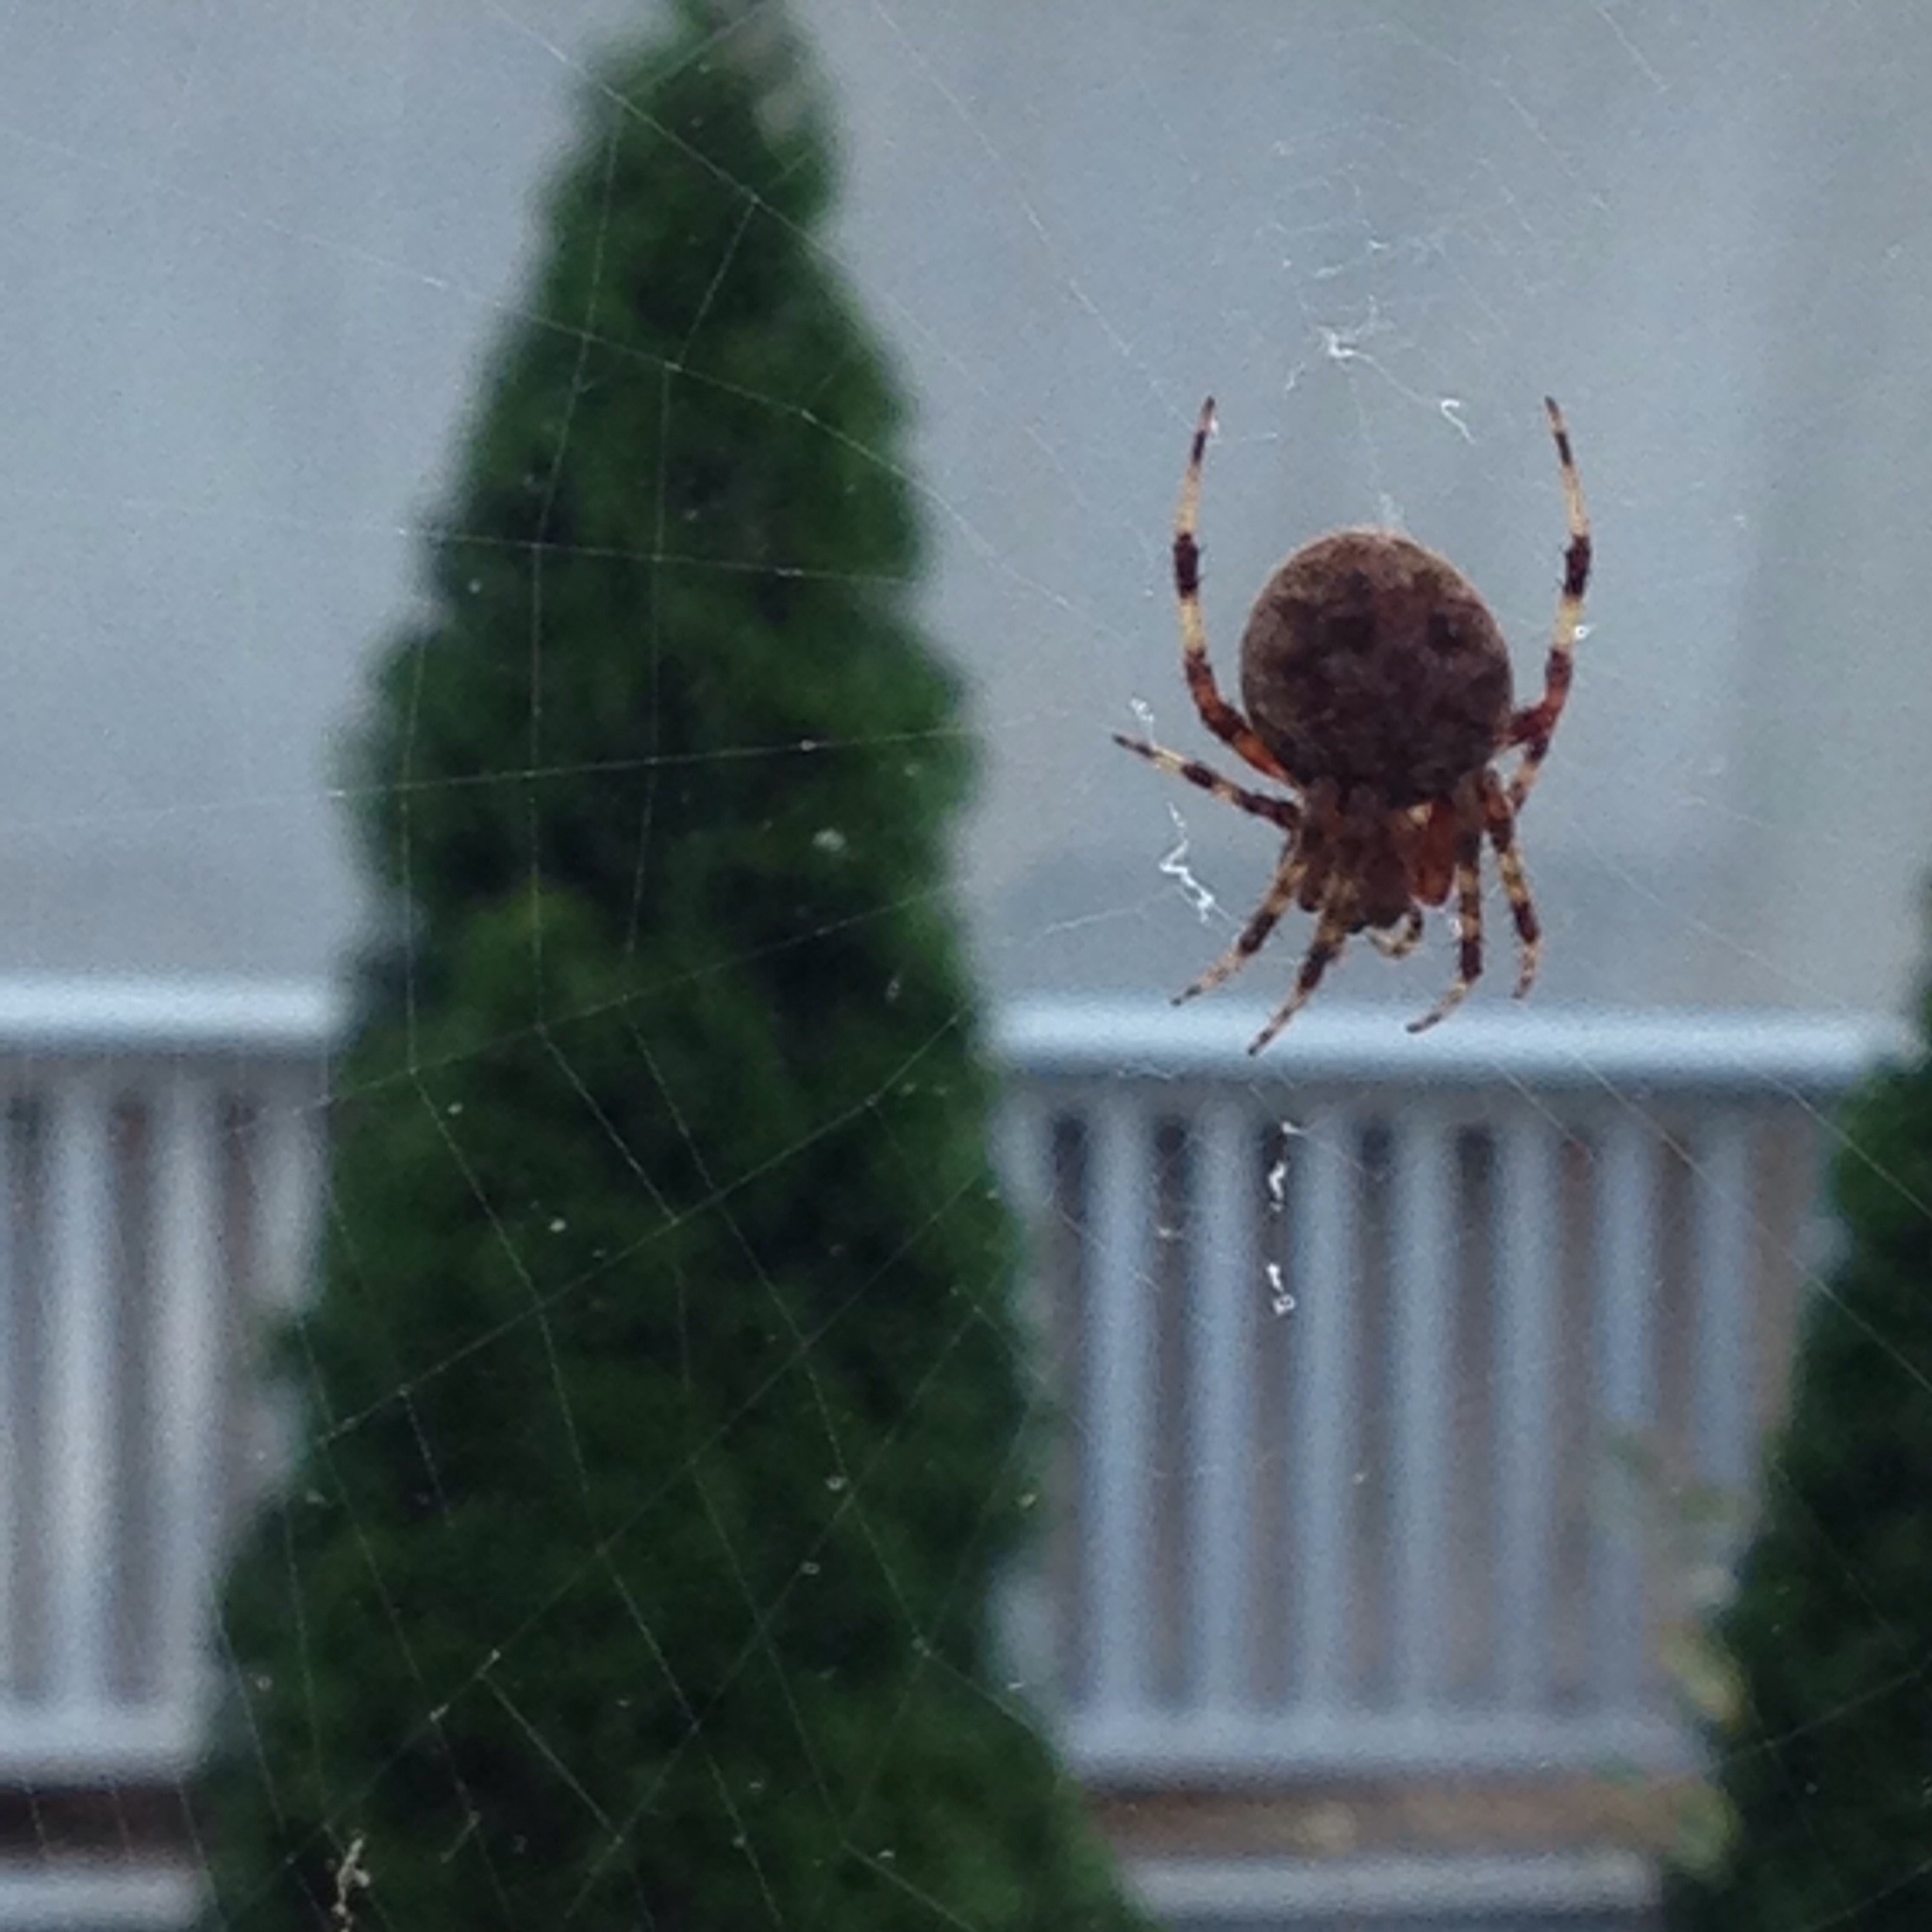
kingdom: Animalia
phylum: Arthropoda
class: Arachnida
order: Araneae
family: Araneidae
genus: Neoscona
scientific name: Neoscona crucifera
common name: Spotted orbweaver
